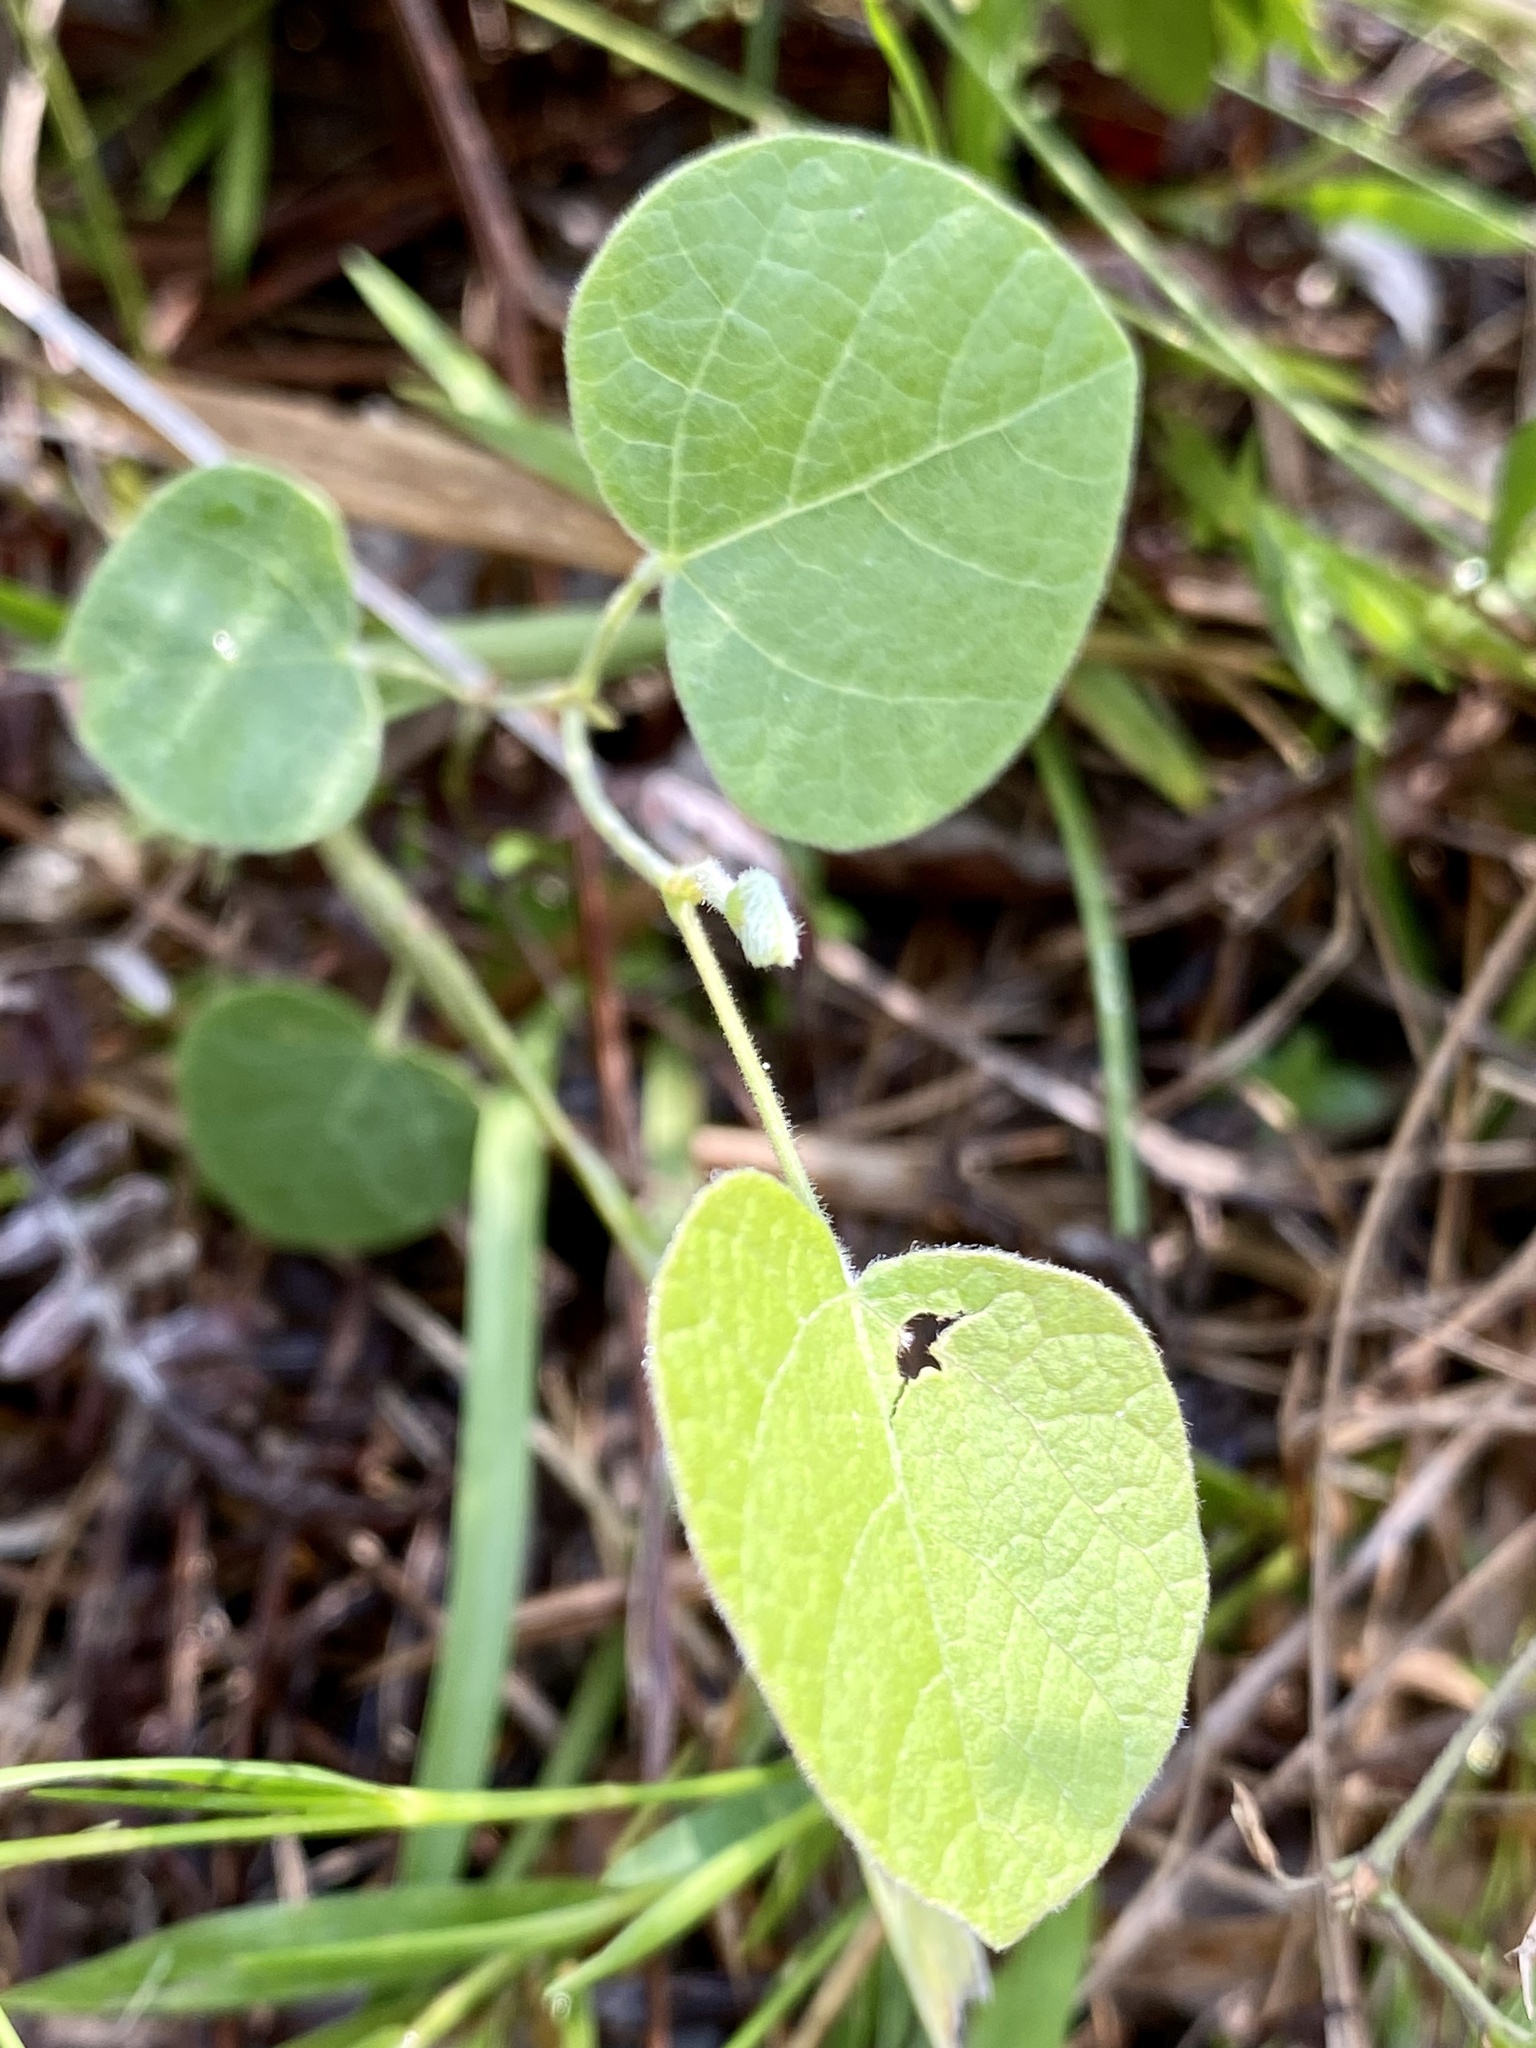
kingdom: Plantae
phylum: Tracheophyta
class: Magnoliopsida
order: Fabales
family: Fabaceae
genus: Rhynchosia
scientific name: Rhynchosia michauxii
